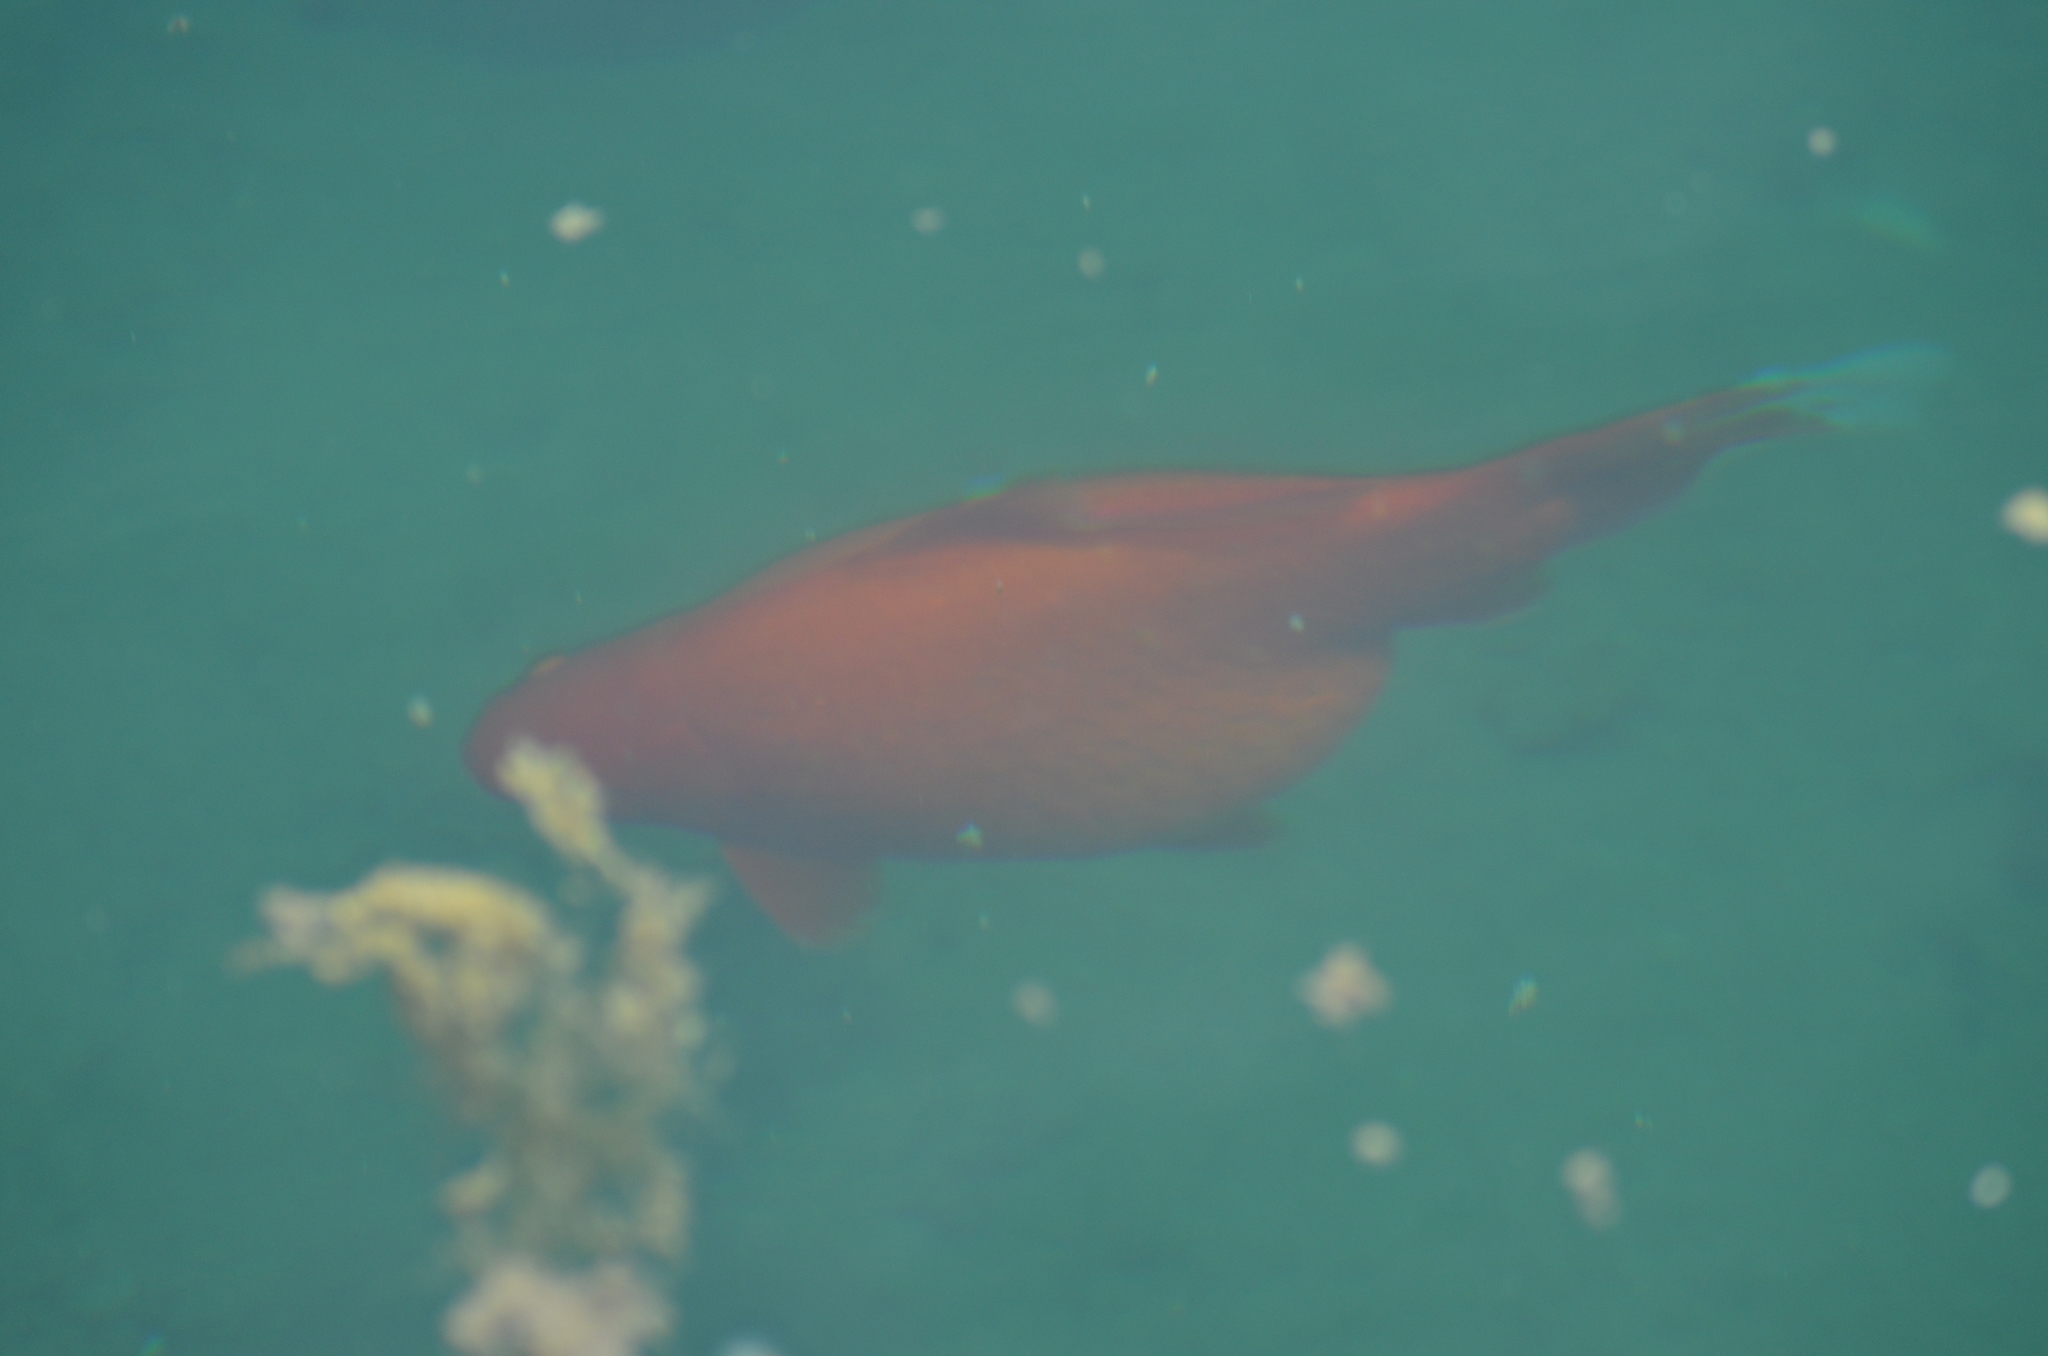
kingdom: Animalia
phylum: Chordata
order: Cypriniformes
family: Cyprinidae
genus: Carassius
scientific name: Carassius auratus
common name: Goldfish
